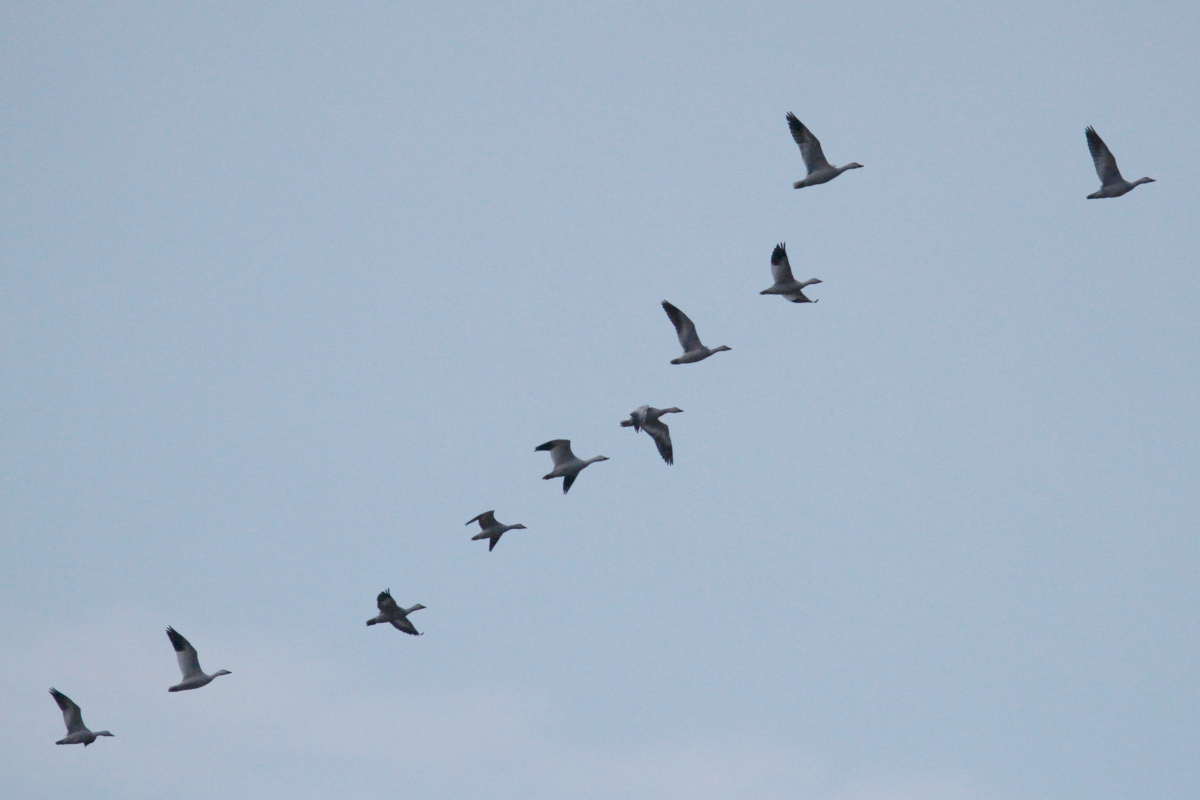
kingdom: Animalia
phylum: Chordata
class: Aves
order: Anseriformes
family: Anatidae
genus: Anser
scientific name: Anser caerulescens
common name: Snow goose
